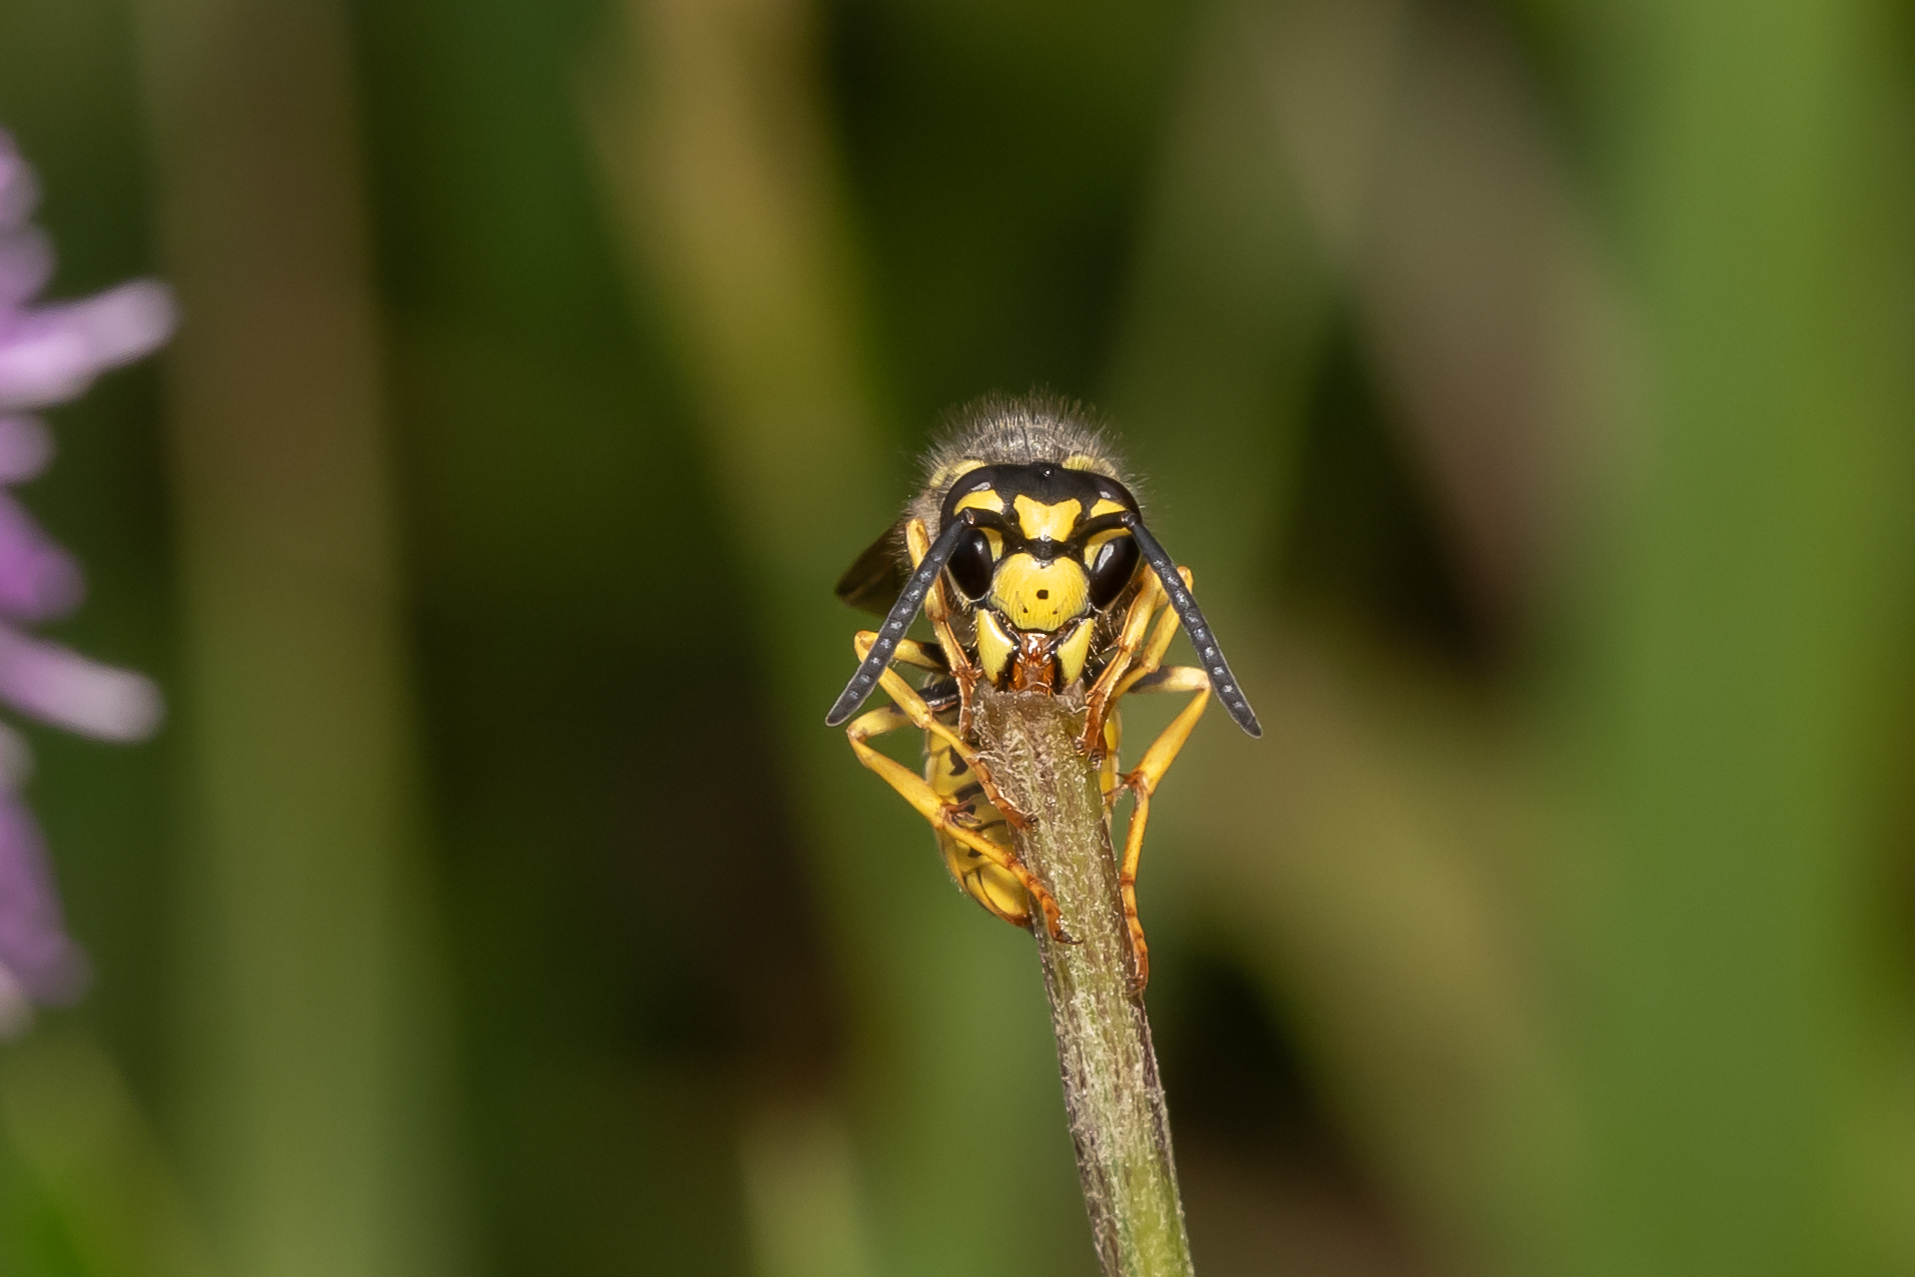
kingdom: Animalia
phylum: Arthropoda
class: Insecta
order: Hymenoptera
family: Vespidae
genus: Vespula
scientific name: Vespula germanica
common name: German wasp
